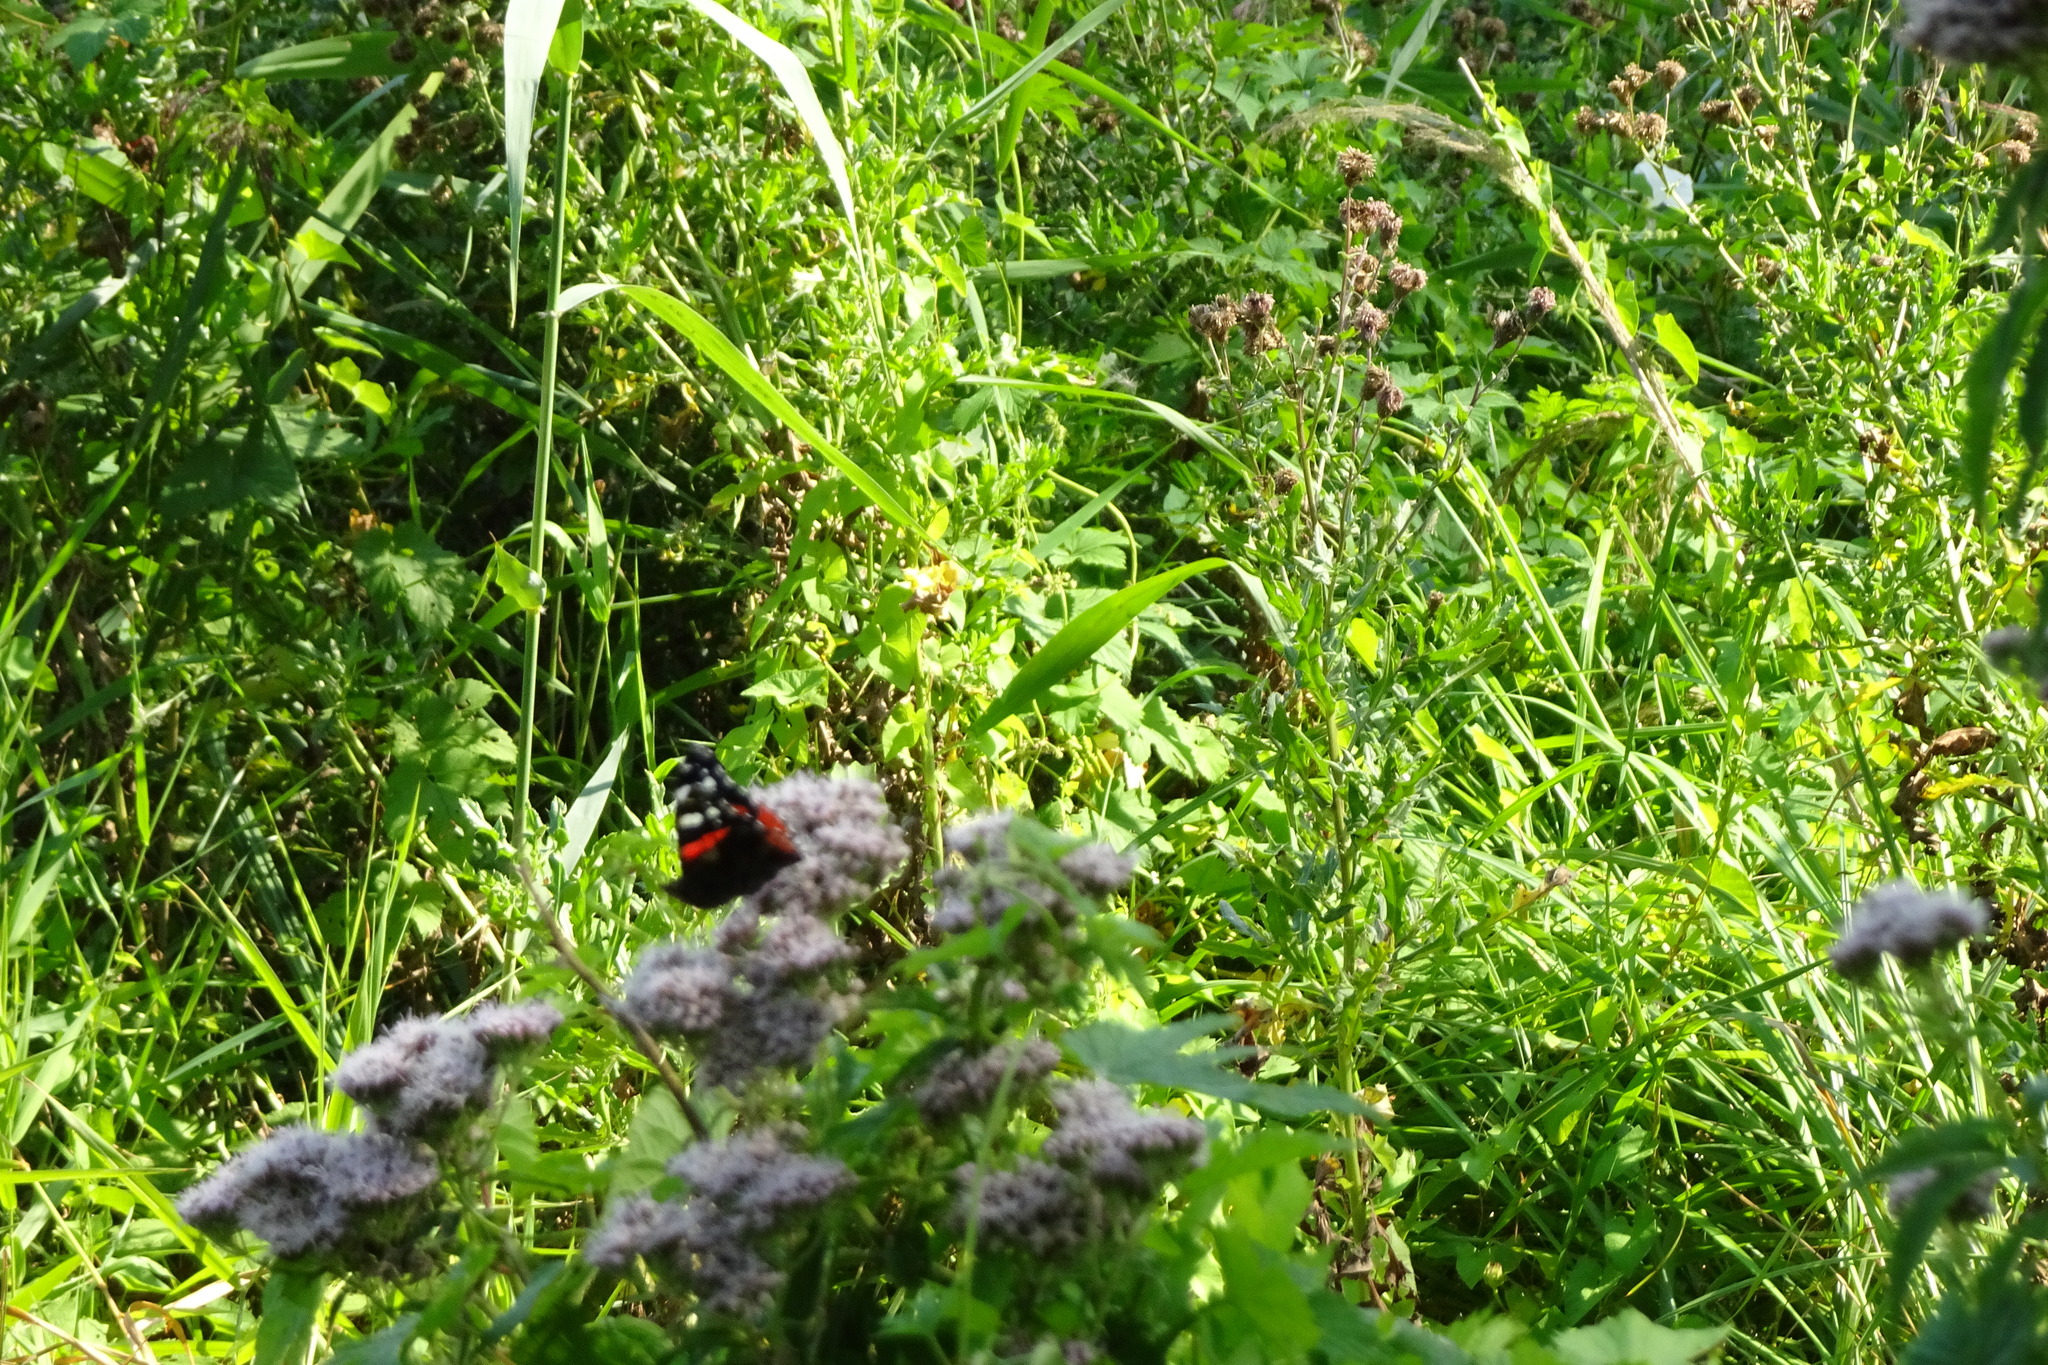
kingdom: Animalia
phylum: Arthropoda
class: Insecta
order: Lepidoptera
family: Nymphalidae
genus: Vanessa
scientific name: Vanessa atalanta
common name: Red admiral
